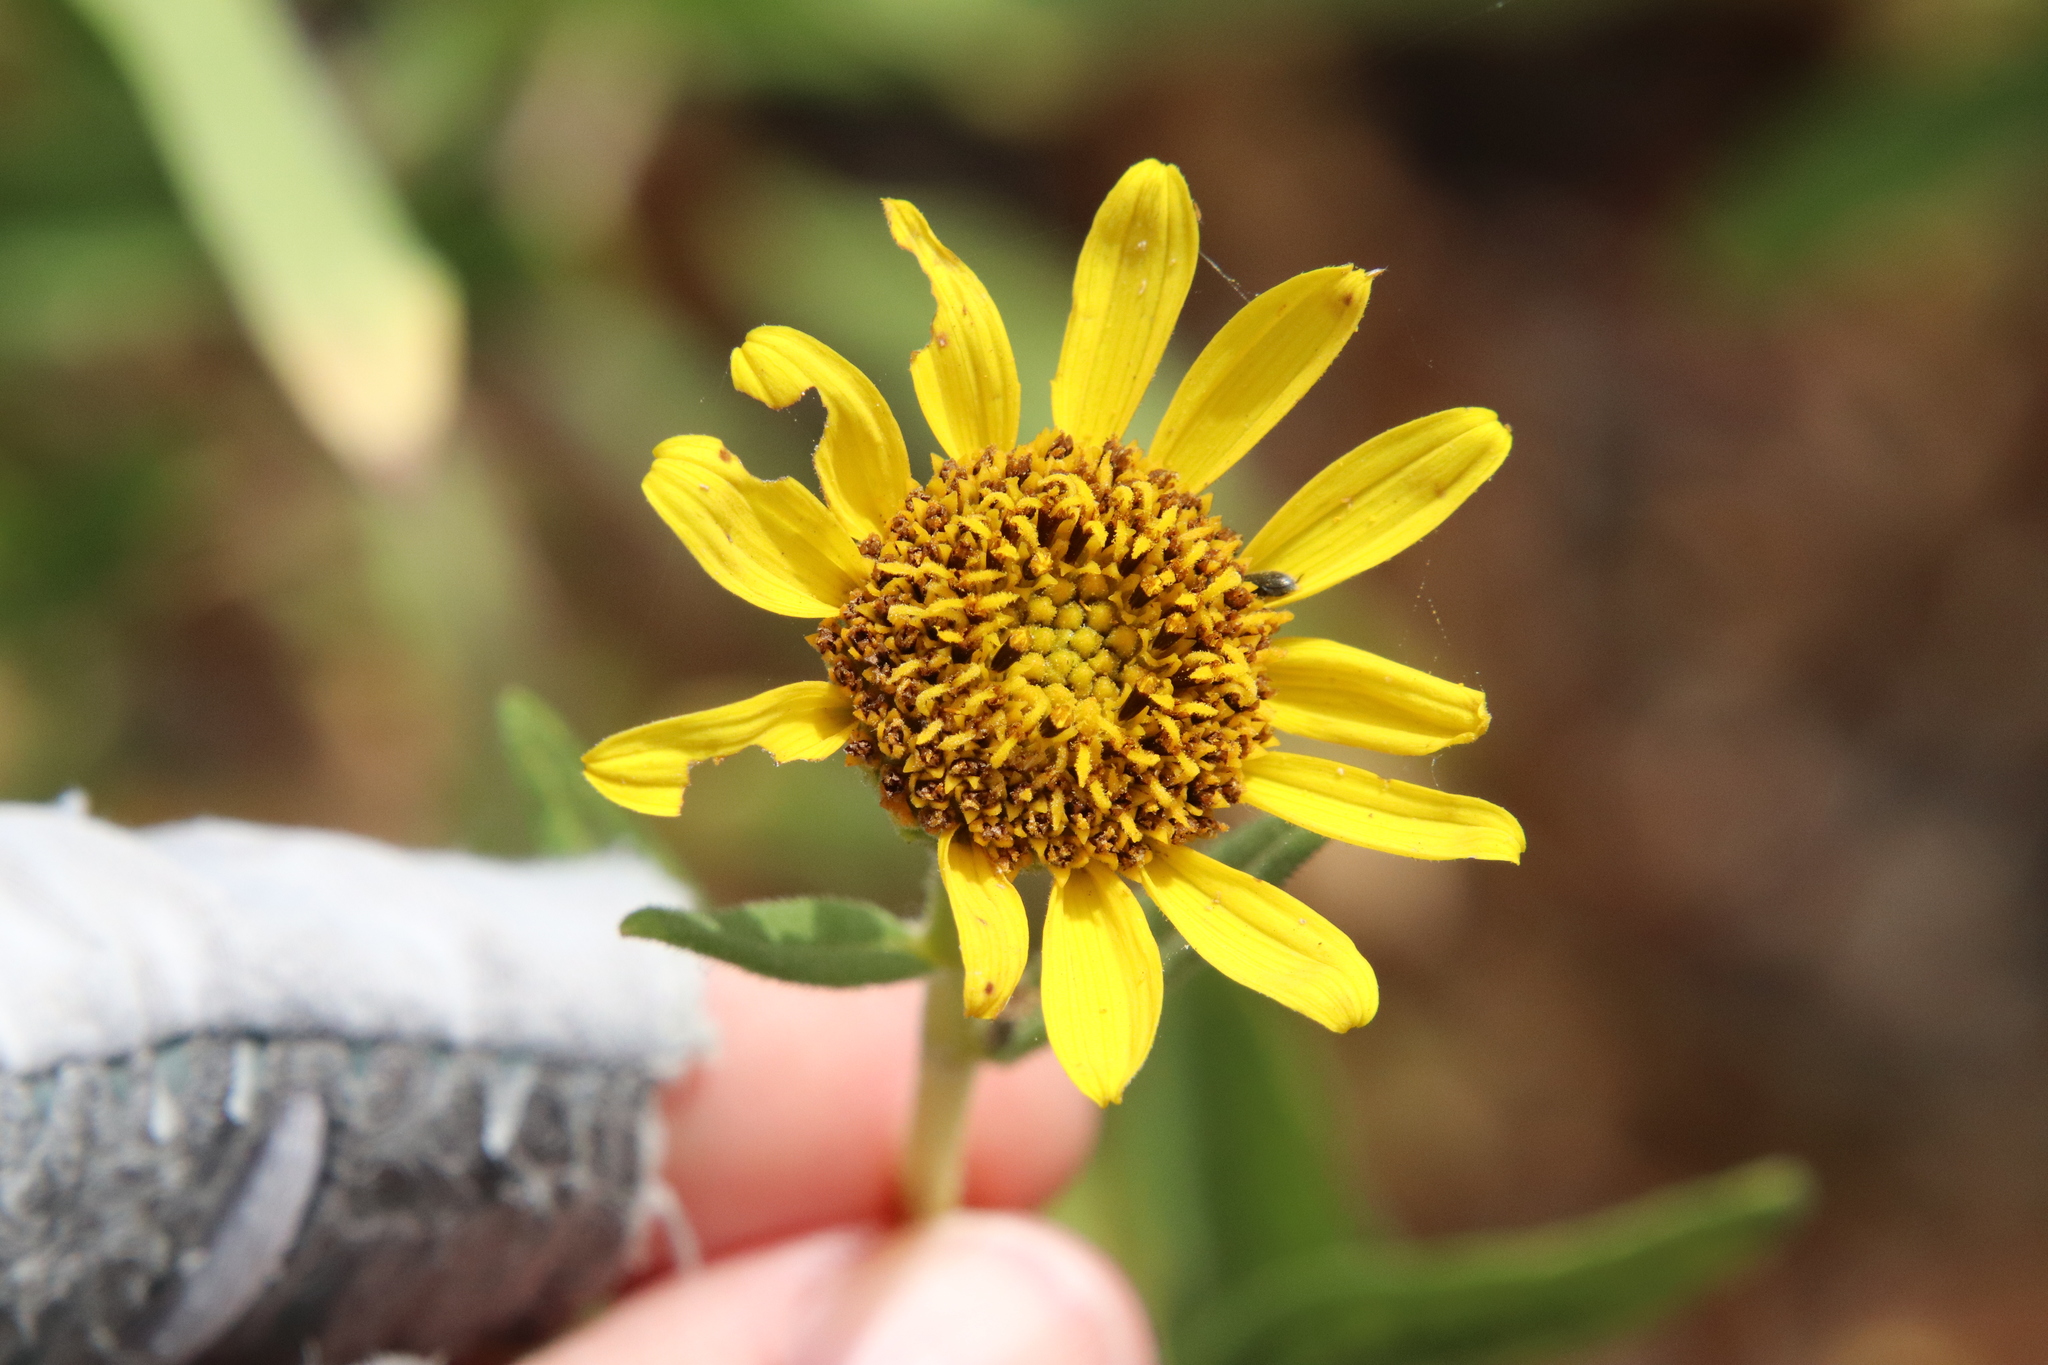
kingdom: Plantae
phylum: Tracheophyta
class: Magnoliopsida
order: Asterales
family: Asteraceae
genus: Helianthus
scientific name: Helianthus gracilentus
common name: Slender sunflower
